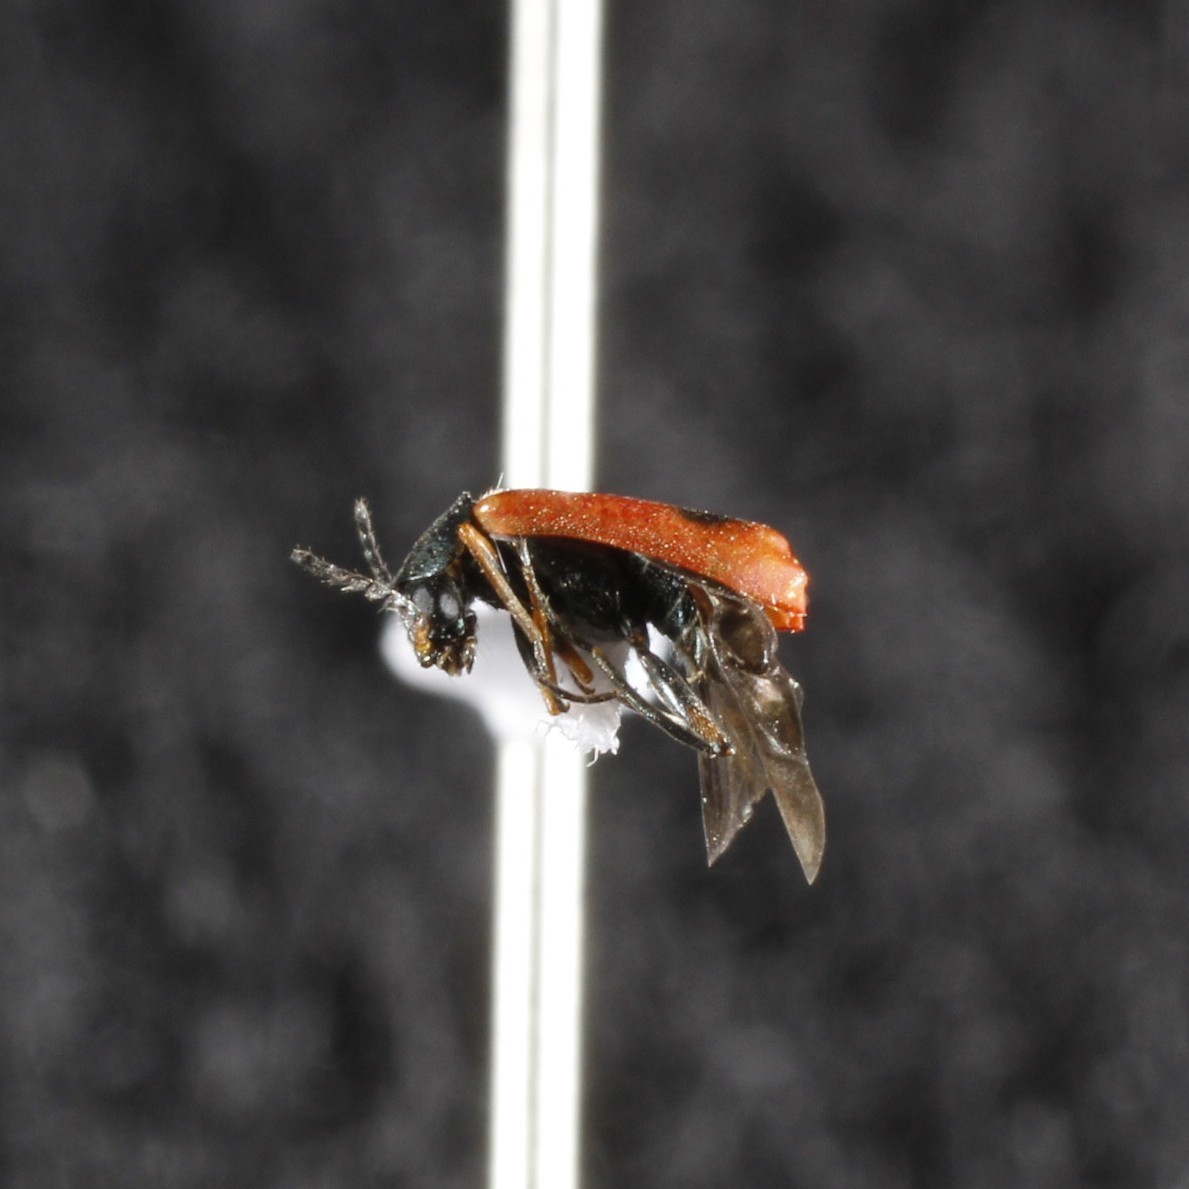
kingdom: Animalia
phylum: Arthropoda
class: Insecta
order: Coleoptera
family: Melyridae
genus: Anthocomus
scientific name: Anthocomus equestris
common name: Black-banded soft-winged flower beetle
